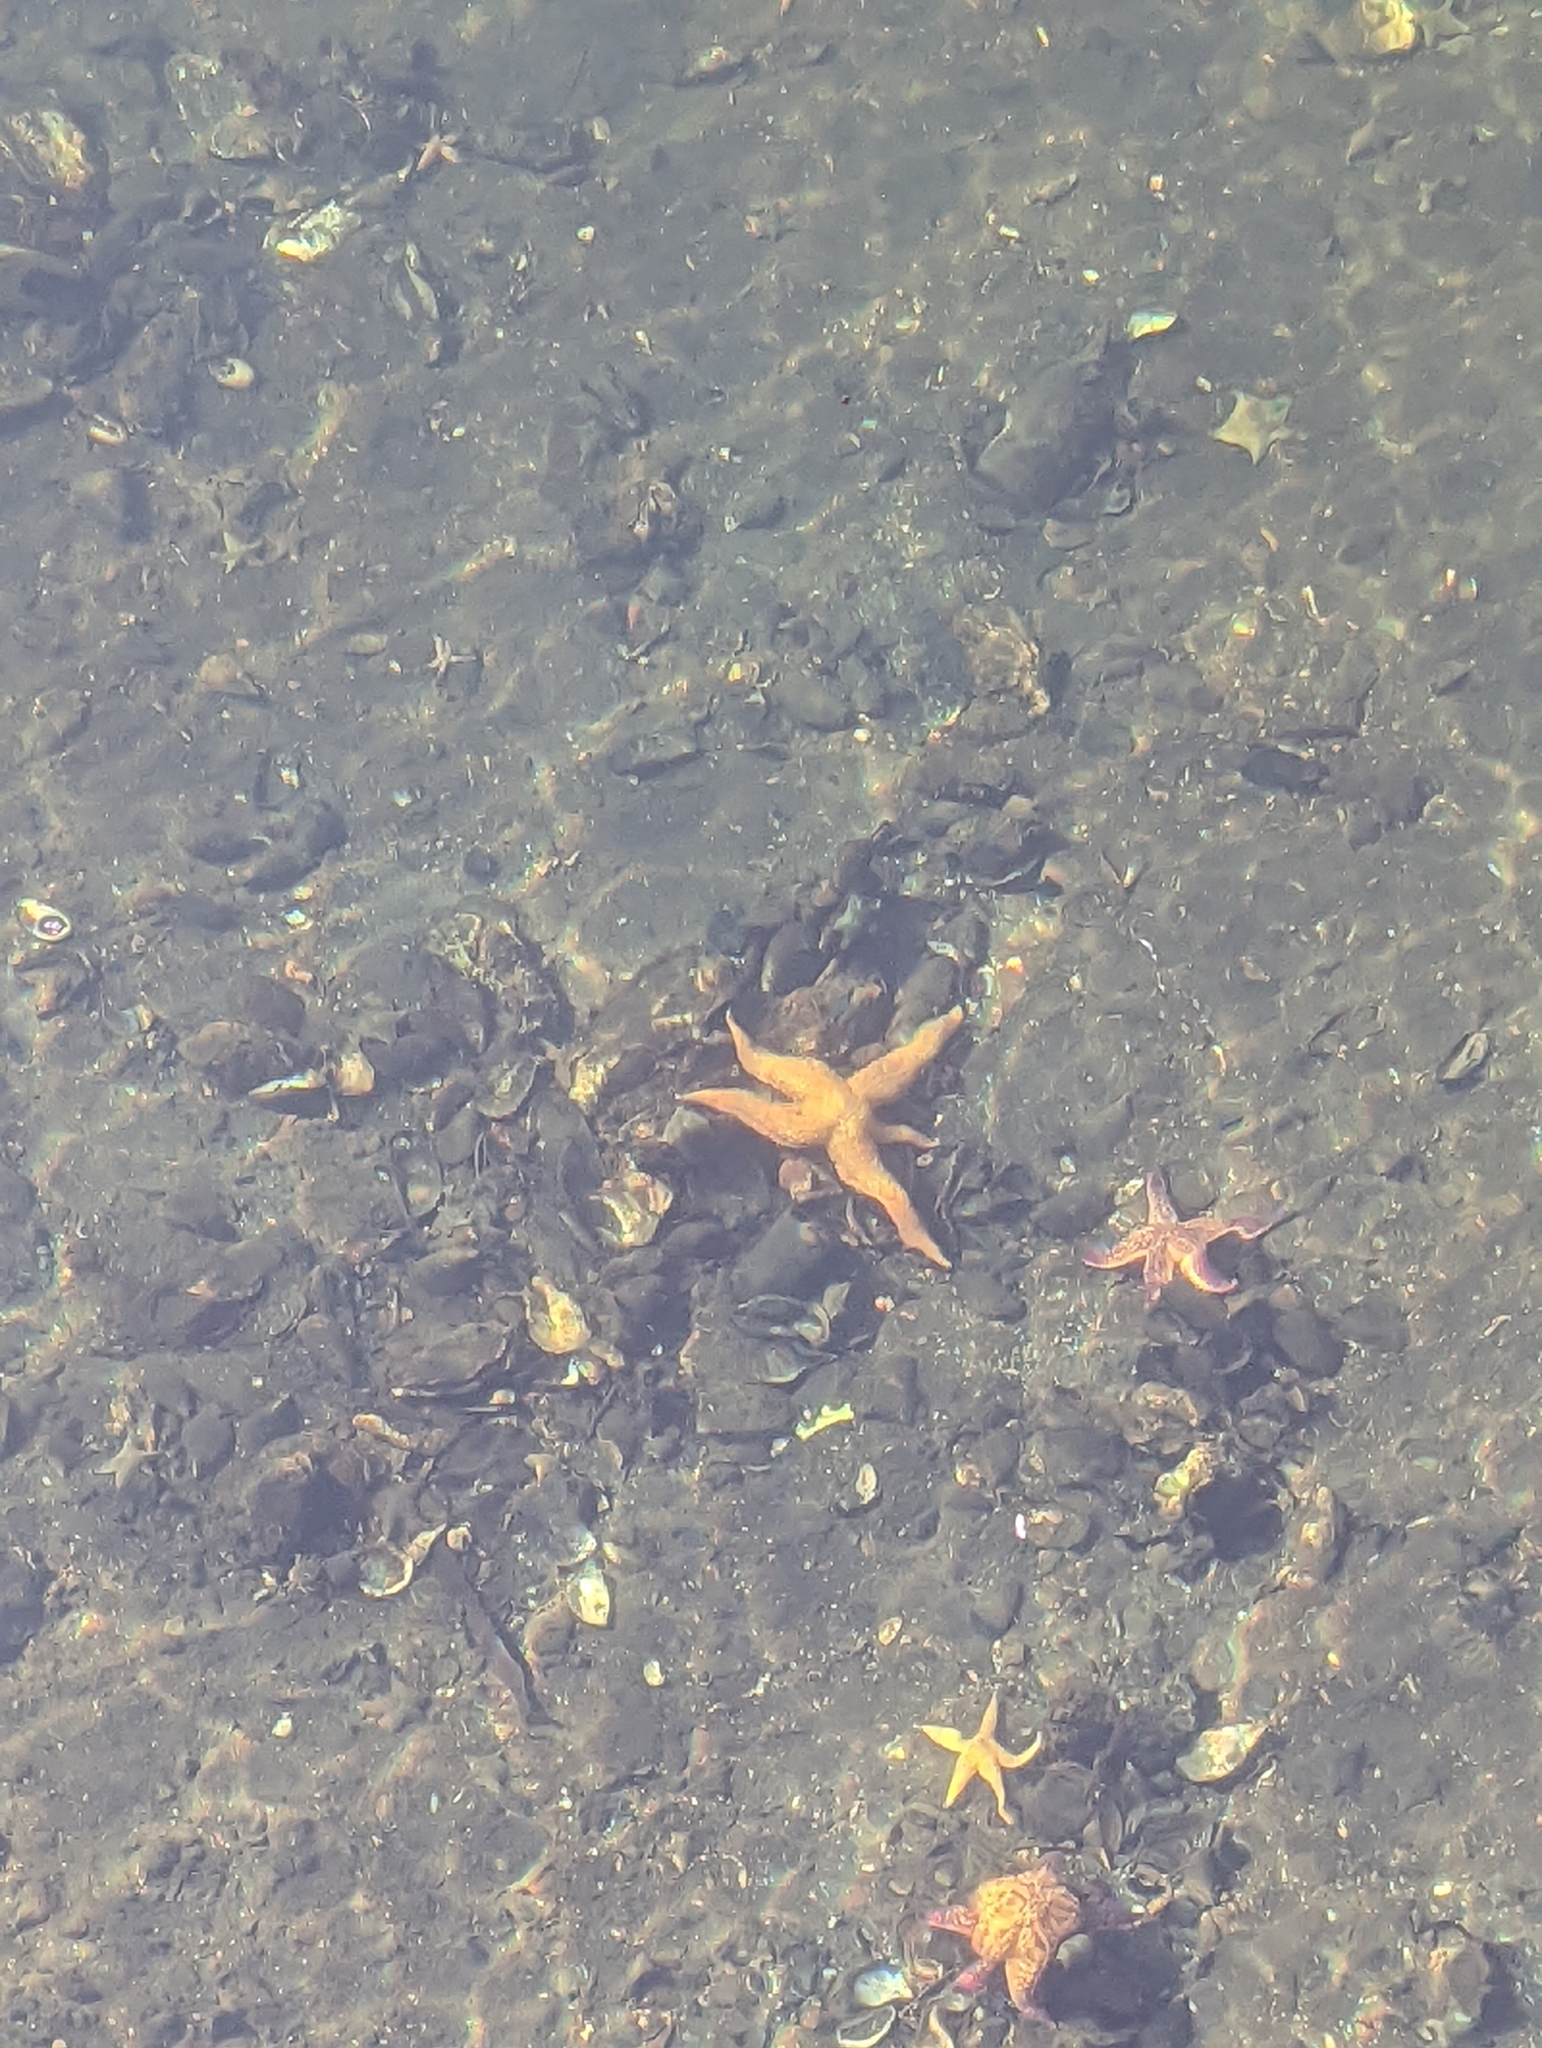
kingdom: Animalia
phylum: Echinodermata
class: Asteroidea
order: Forcipulatida
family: Asteriidae
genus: Asterias
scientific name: Asterias amurensis
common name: Flat-bottomed star
